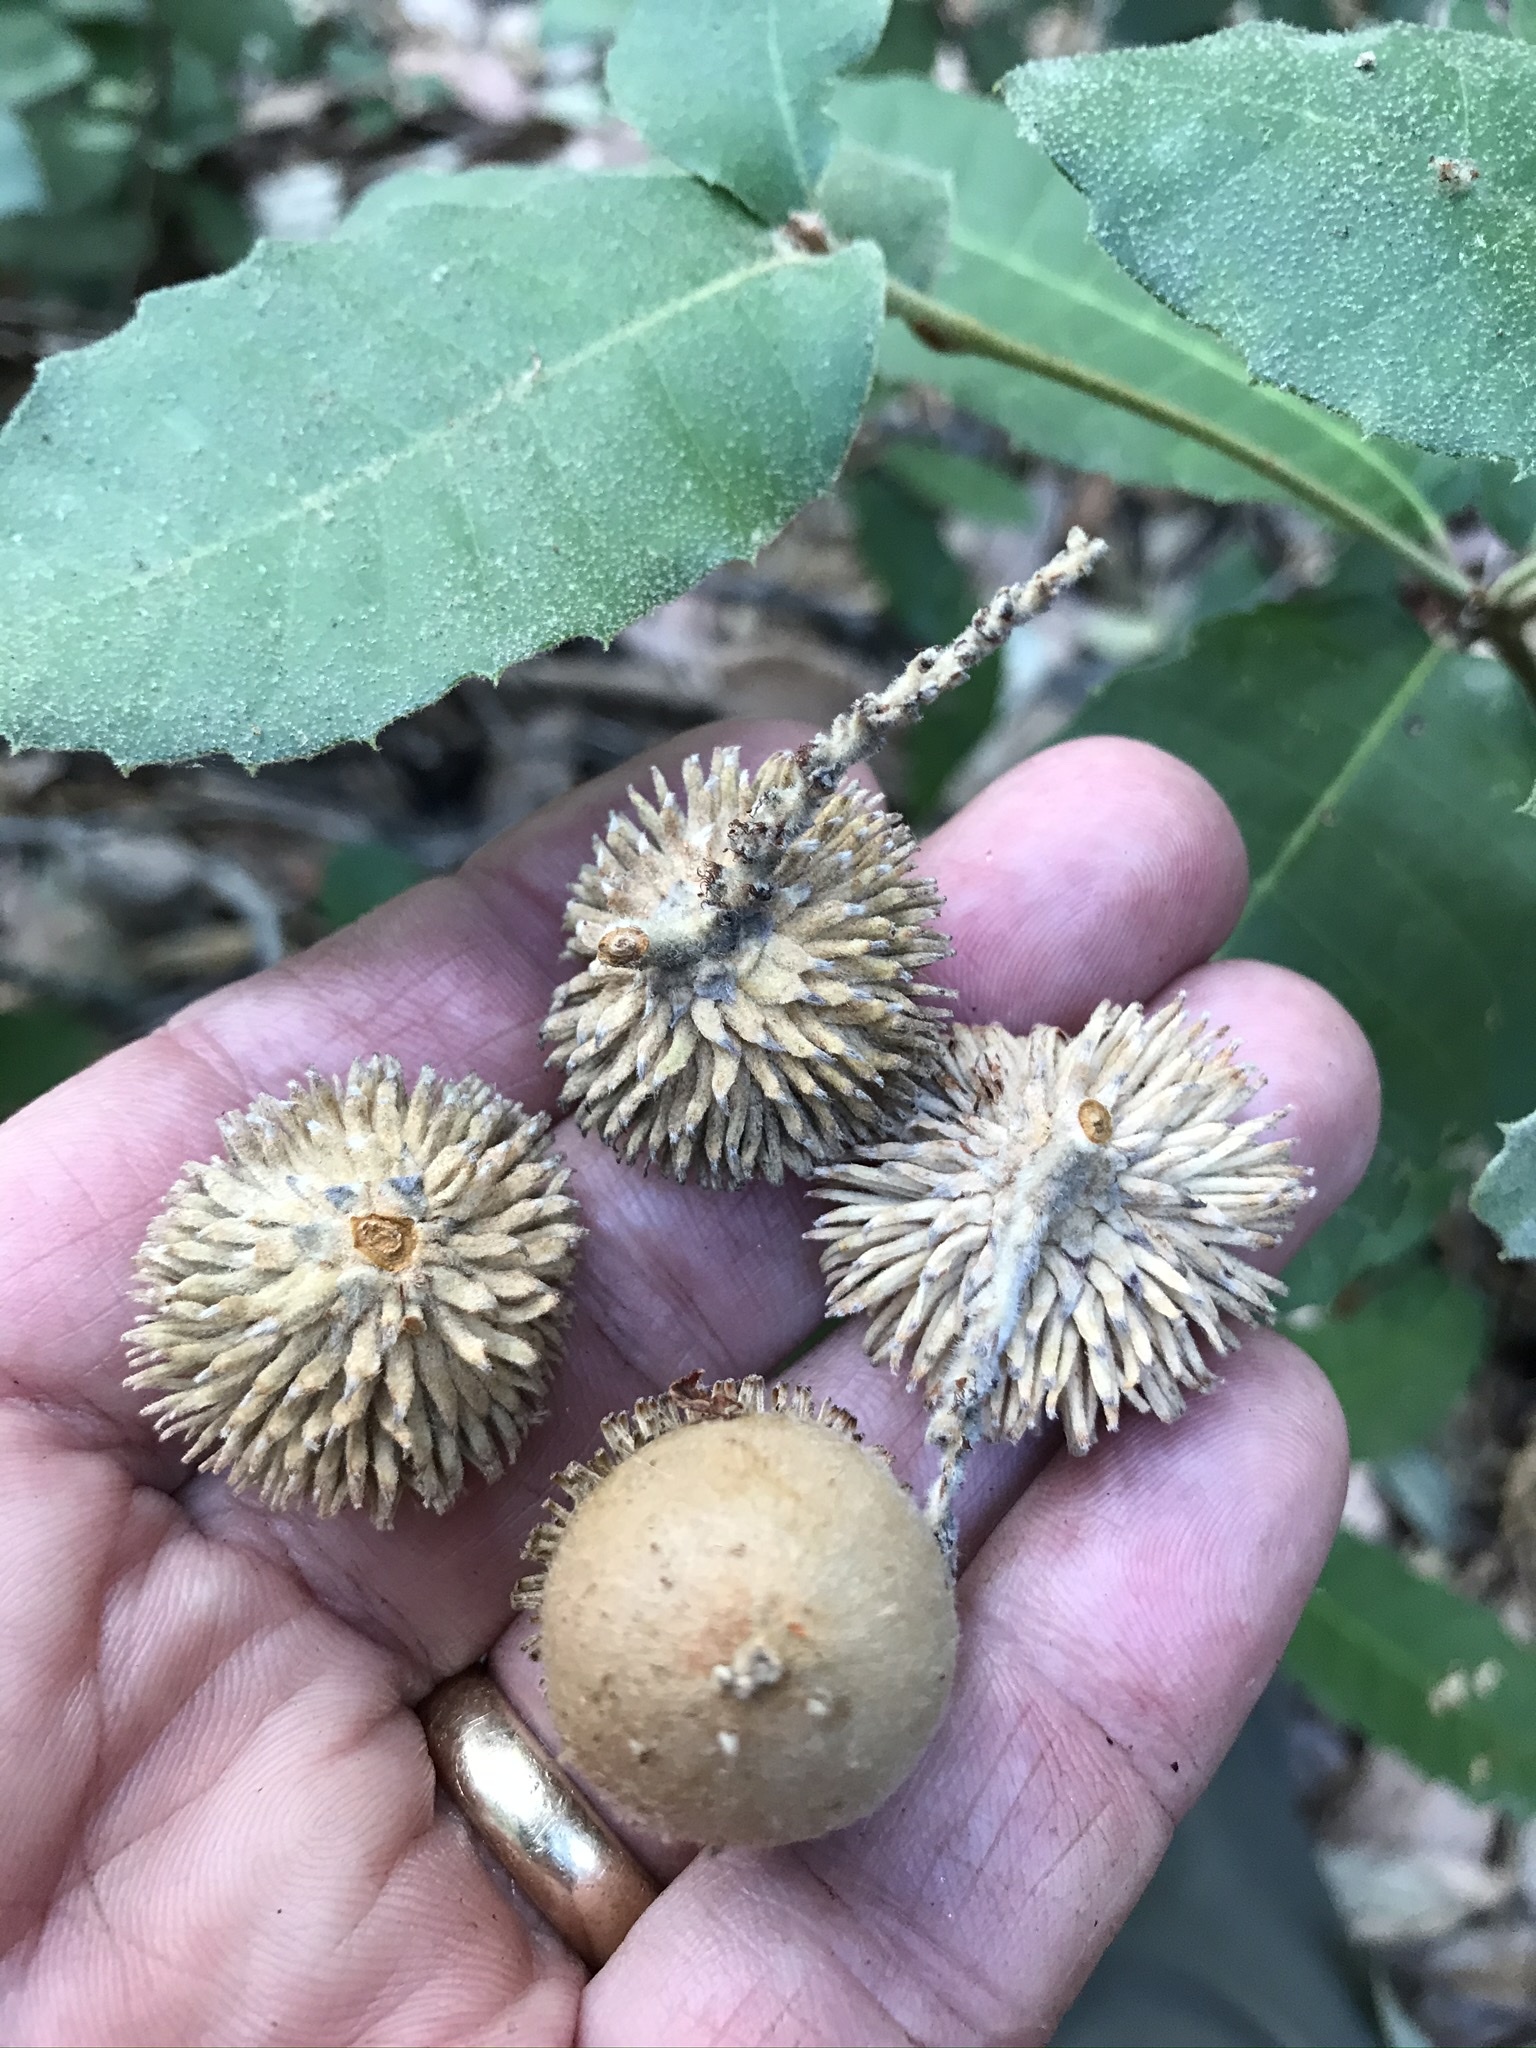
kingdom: Plantae
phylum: Tracheophyta
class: Magnoliopsida
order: Fagales
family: Fagaceae
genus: Notholithocarpus
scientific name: Notholithocarpus densiflorus
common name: Tan bark oak
